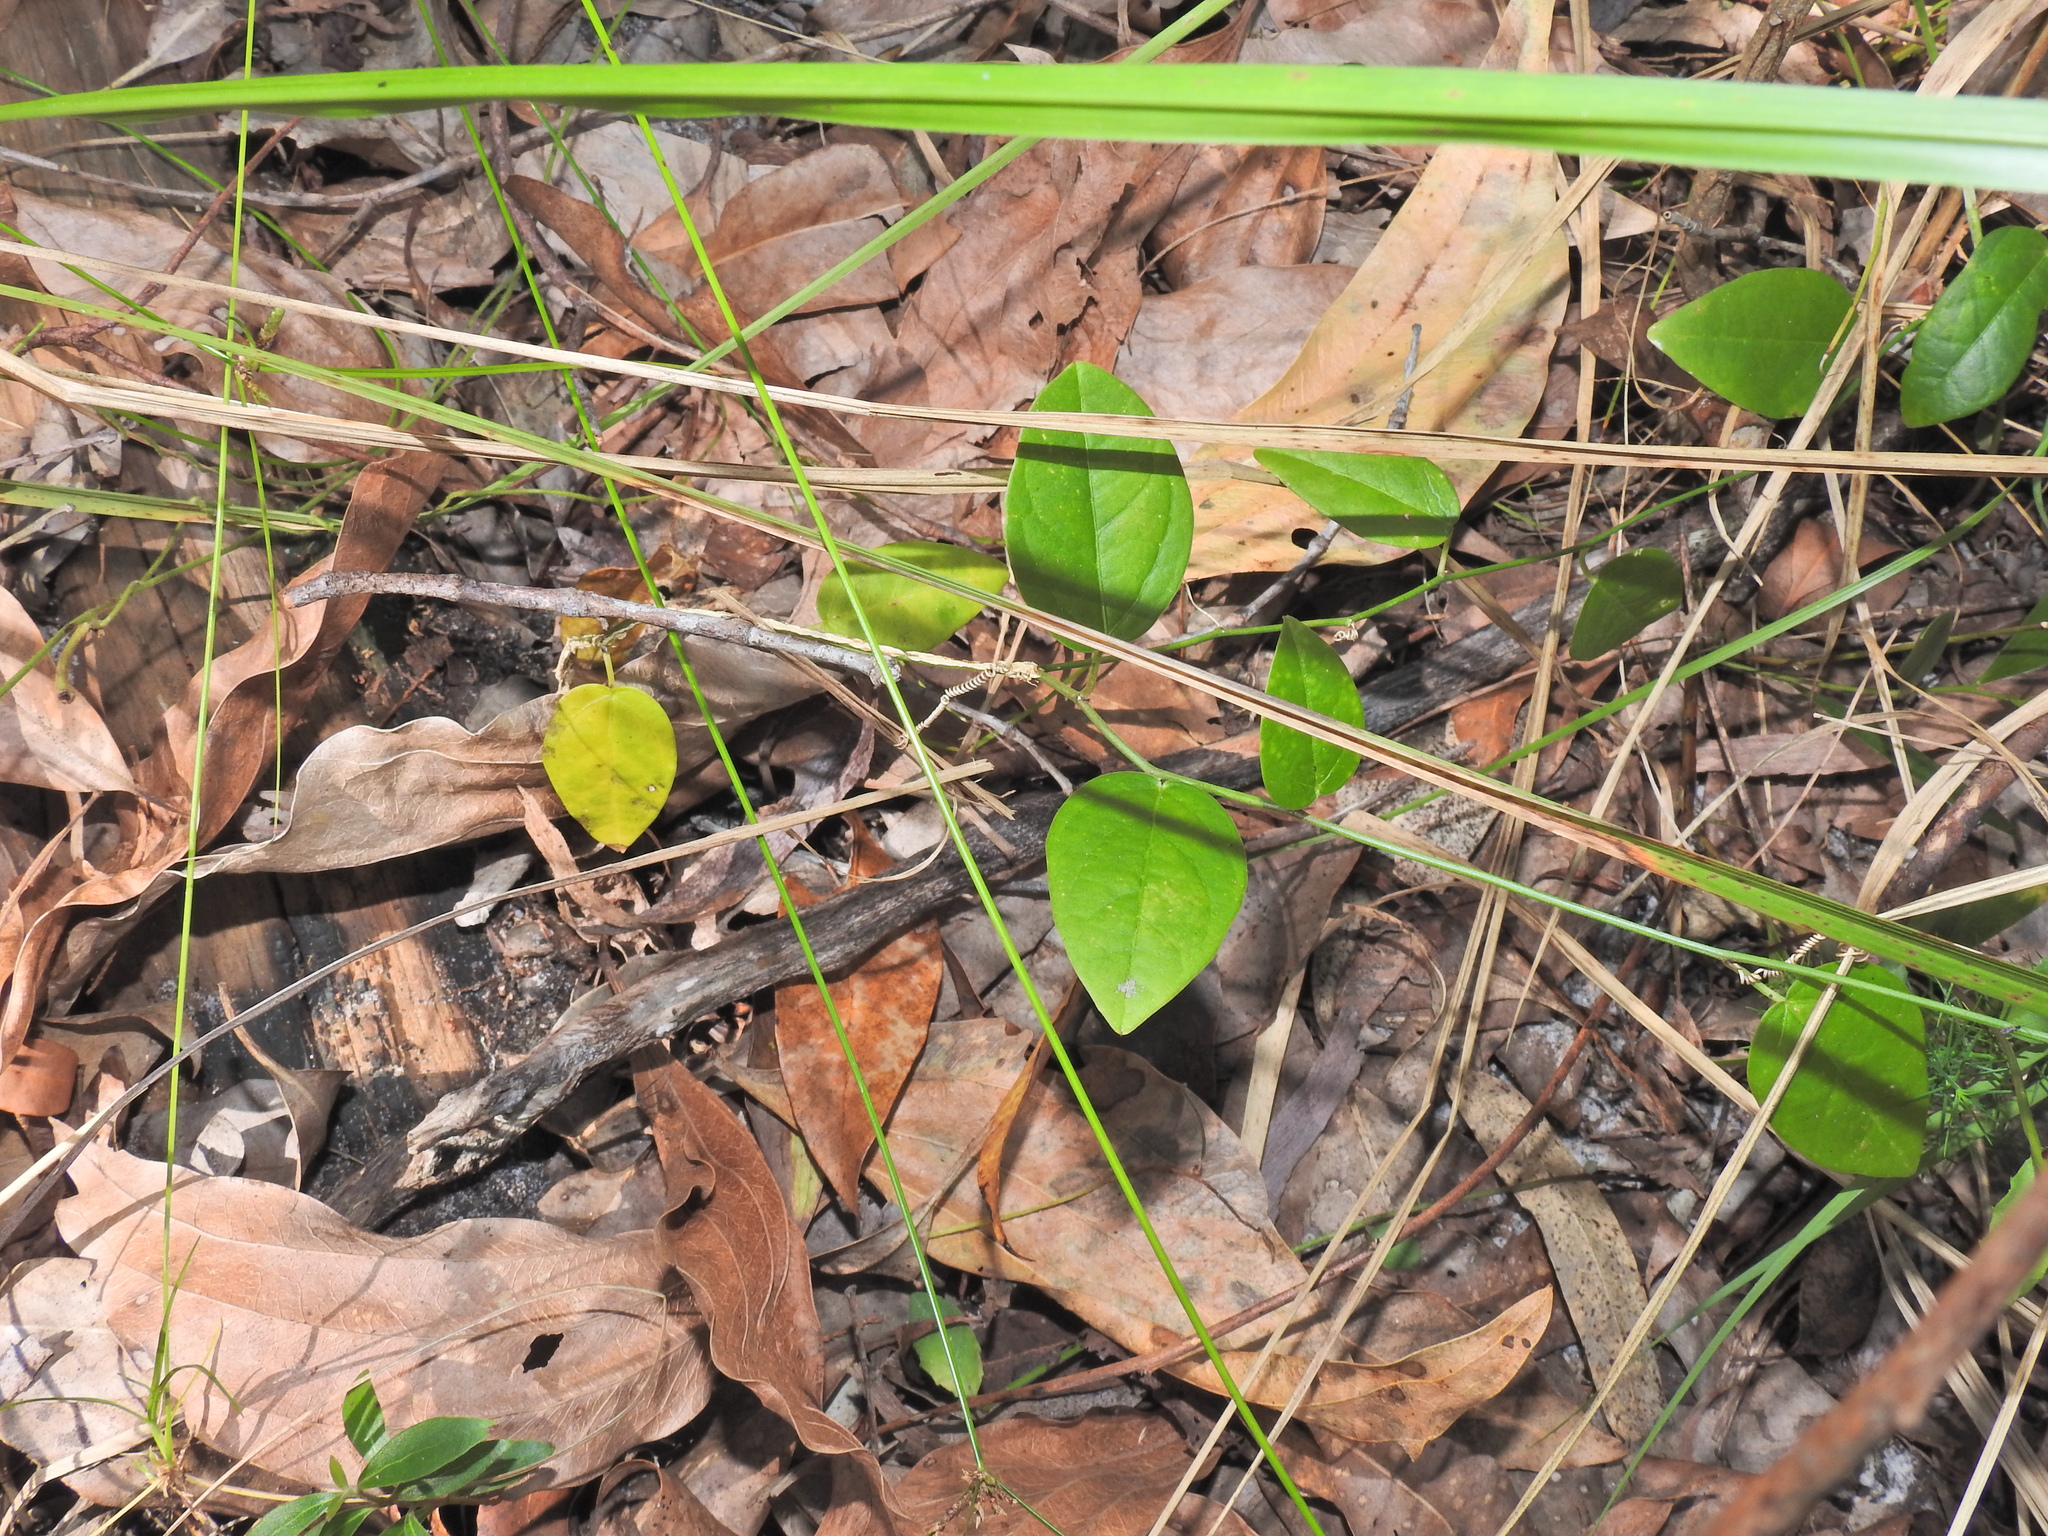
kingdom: Plantae
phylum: Tracheophyta
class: Magnoliopsida
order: Malpighiales
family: Passifloraceae
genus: Passiflora
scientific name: Passiflora pallida
